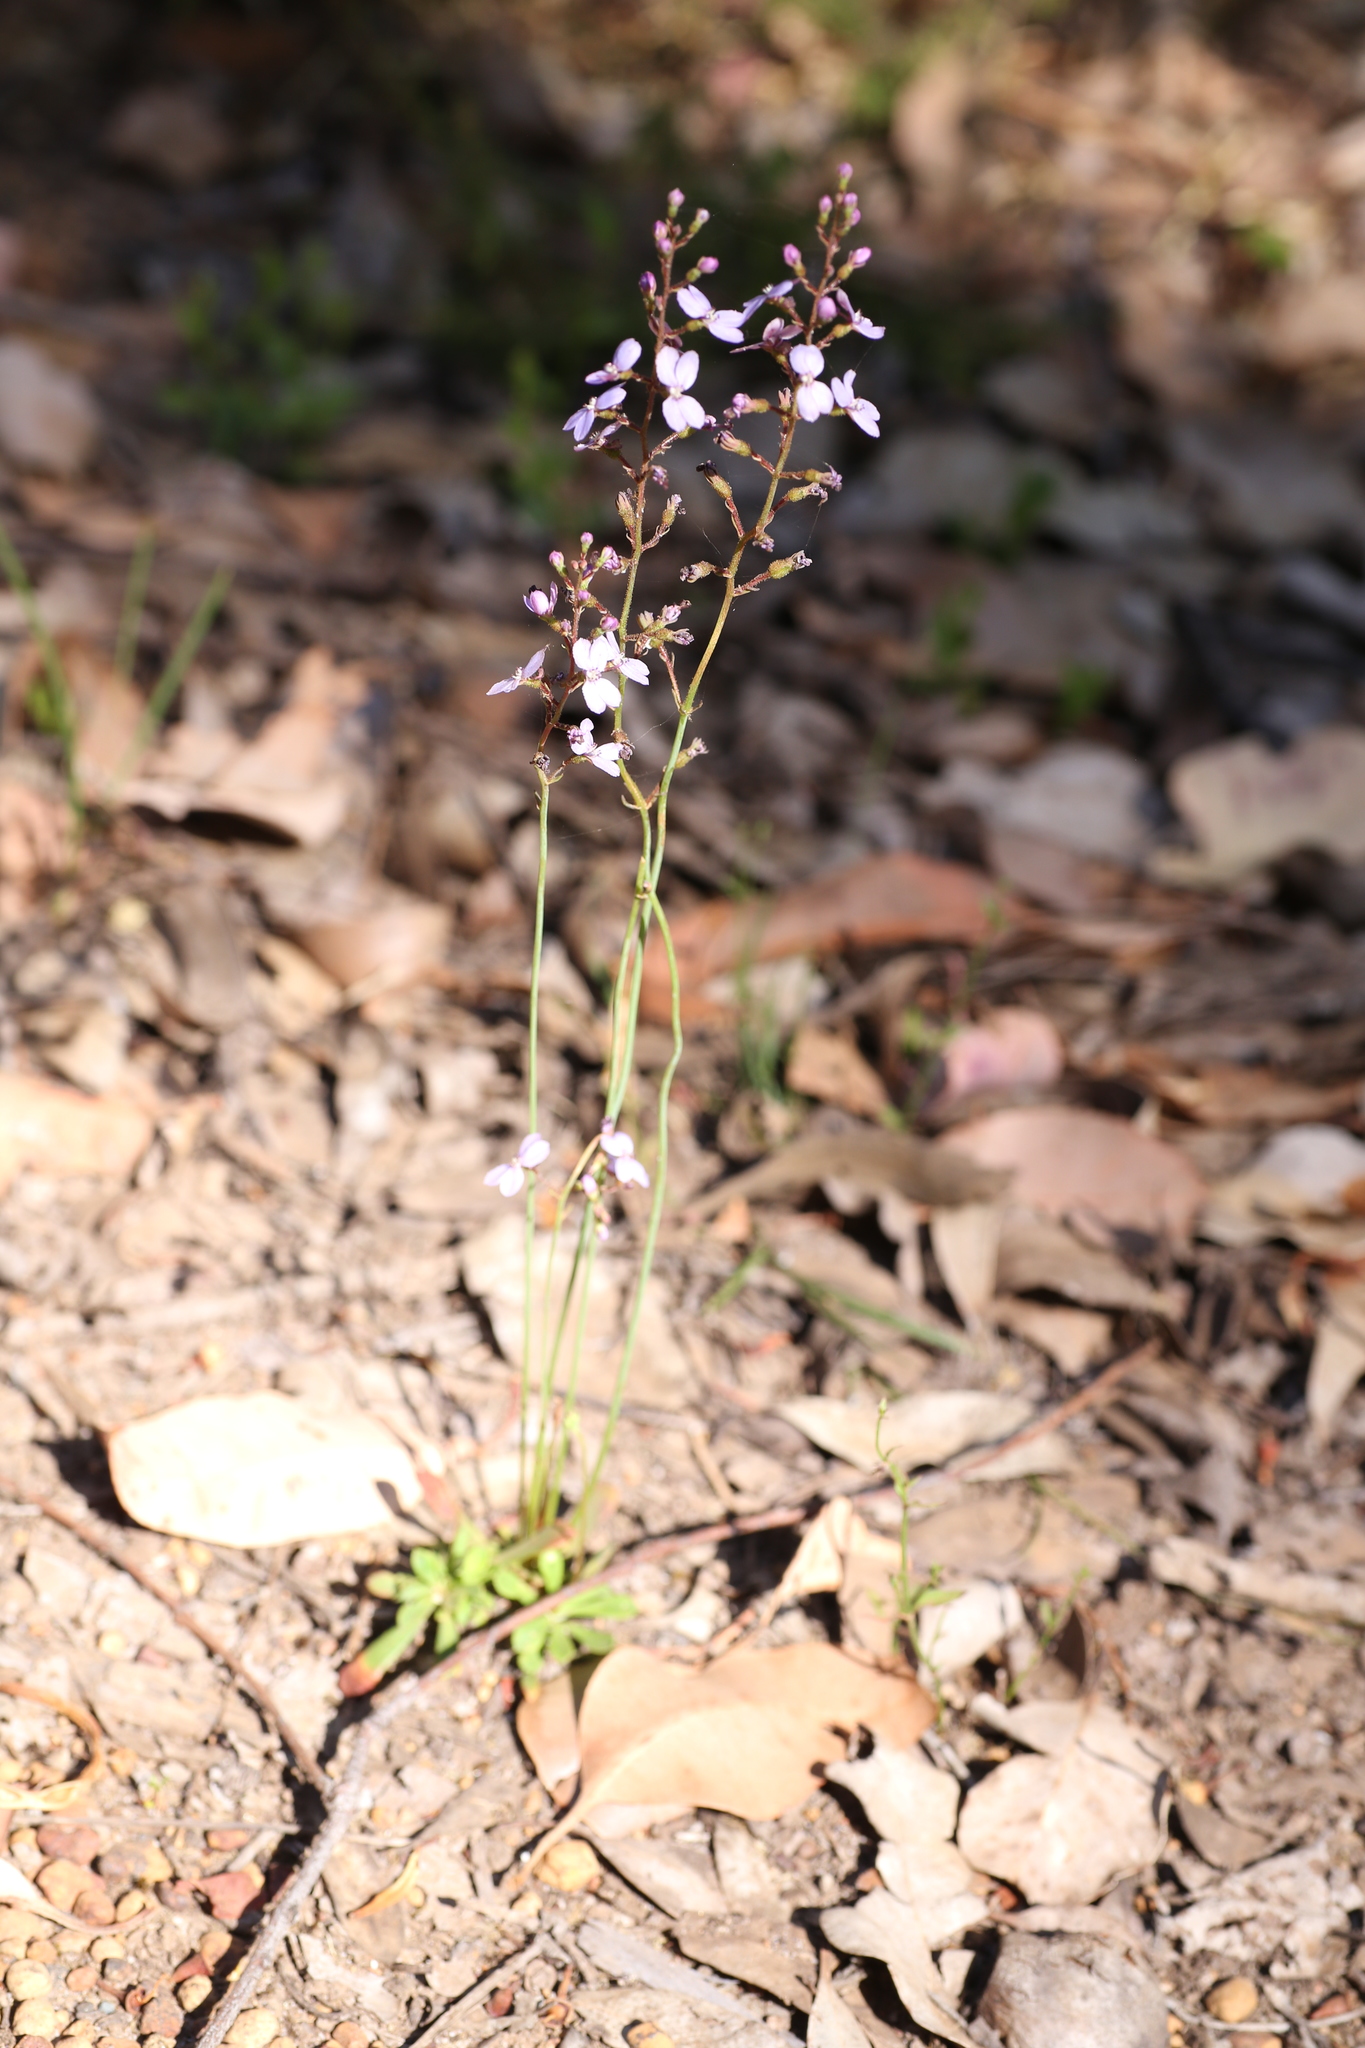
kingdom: Plantae
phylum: Tracheophyta
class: Magnoliopsida
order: Asterales
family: Stylidiaceae
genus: Stylidium
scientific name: Stylidium amoenum
